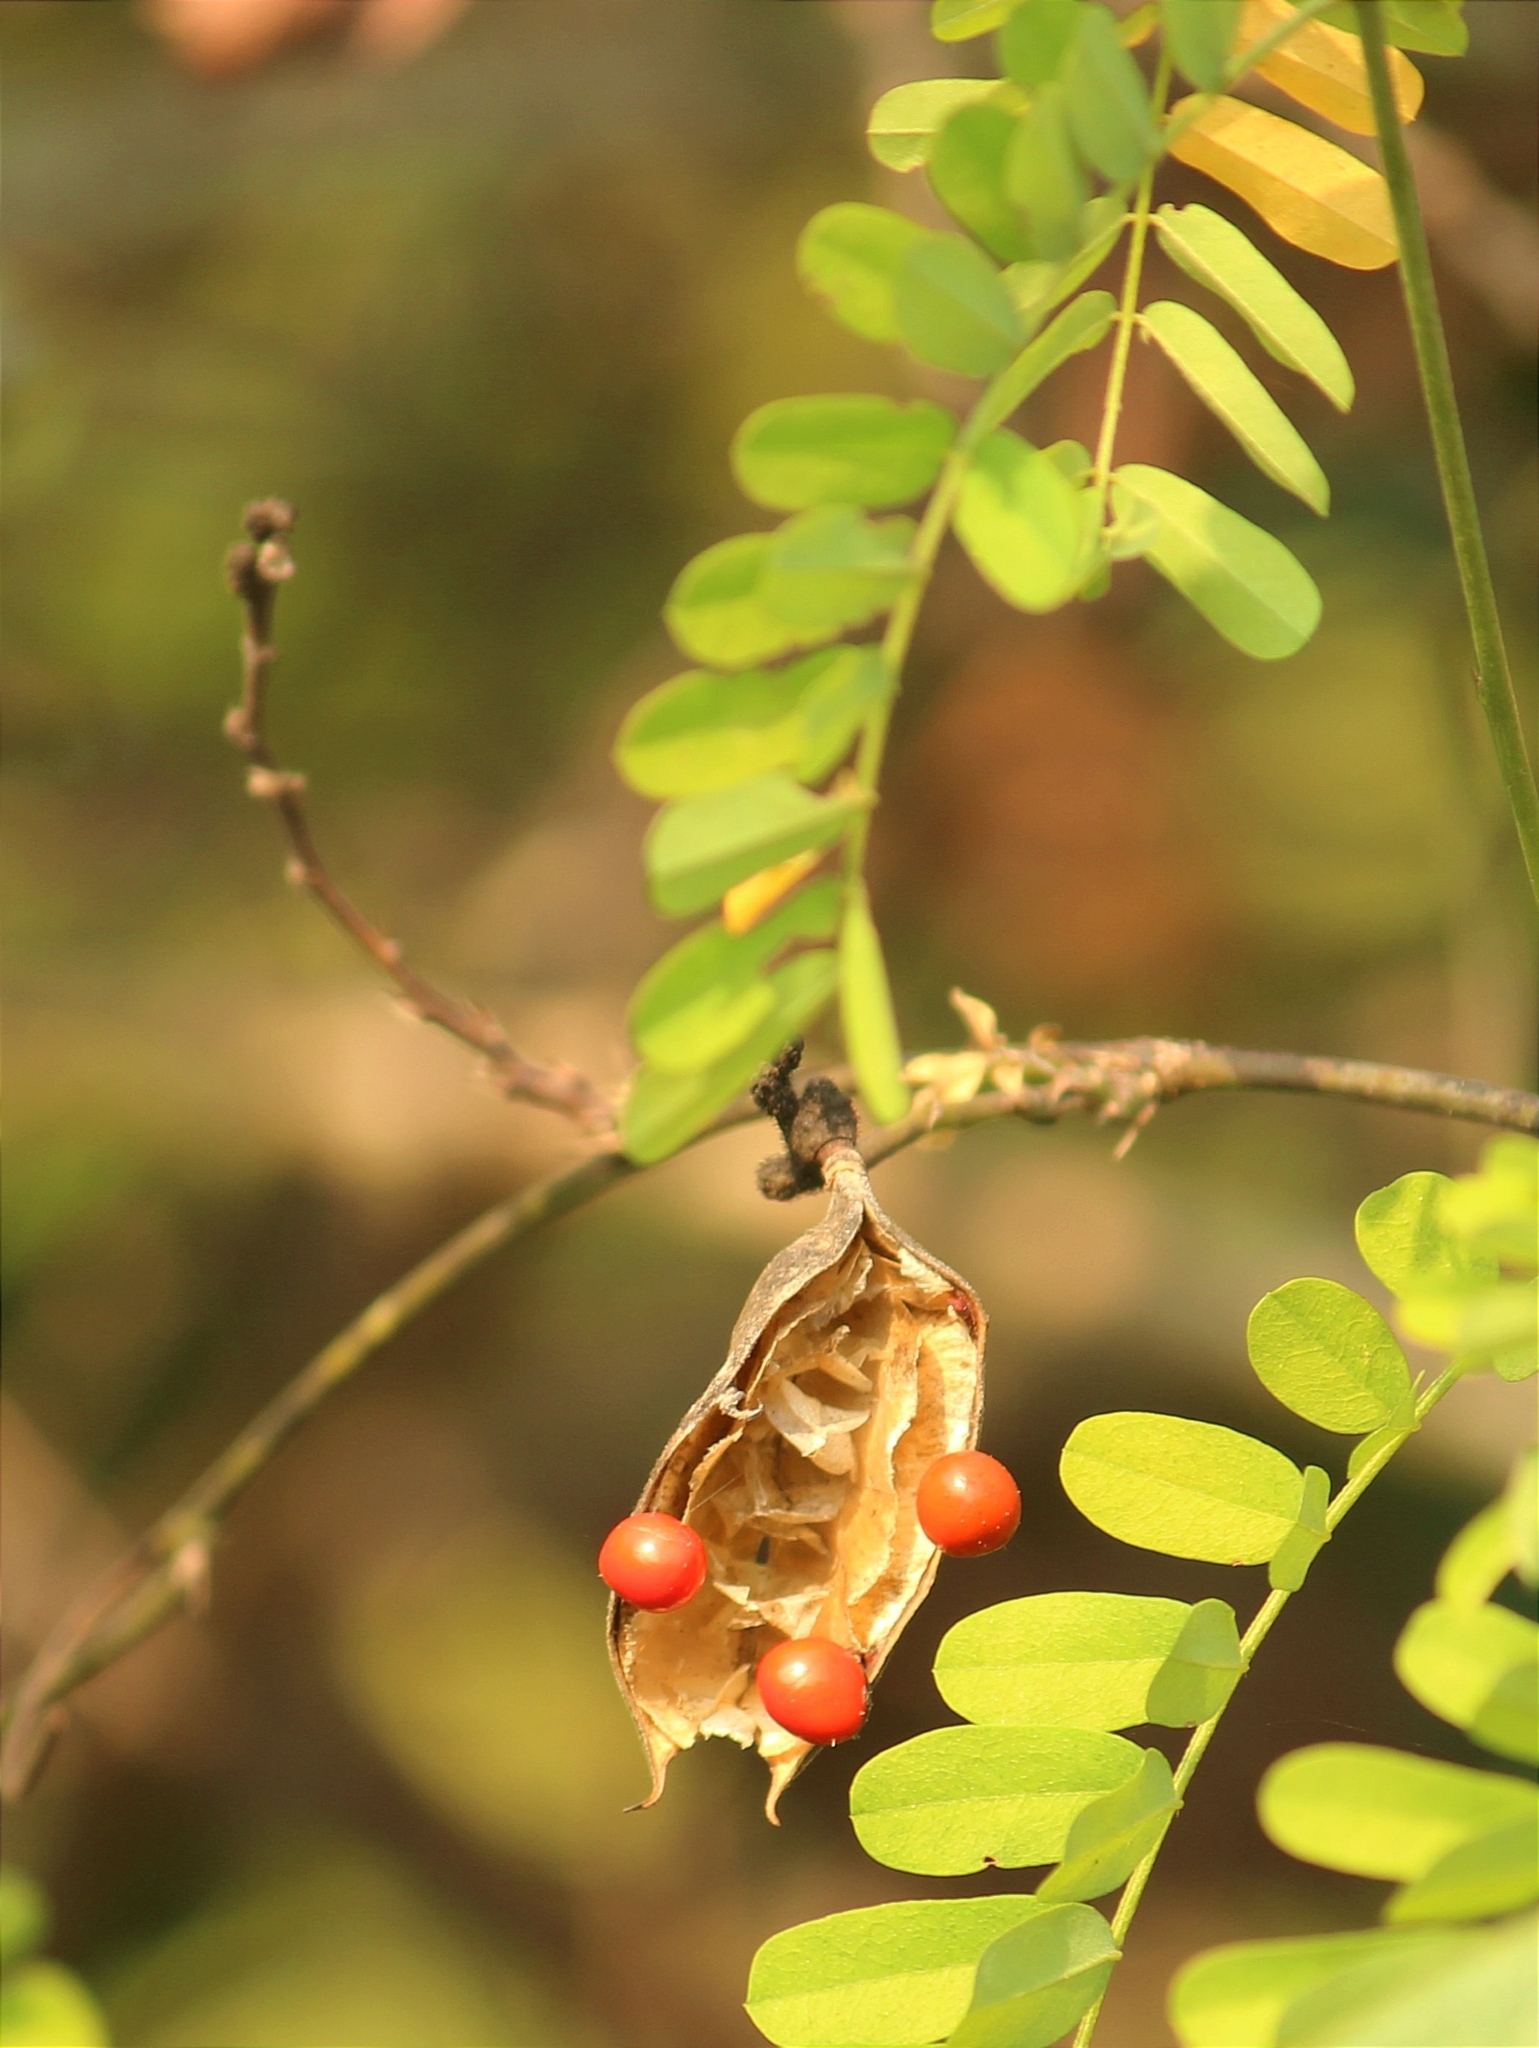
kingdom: Plantae
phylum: Tracheophyta
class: Magnoliopsida
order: Fabales
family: Fabaceae
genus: Abrus
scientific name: Abrus precatorius
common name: Rosarypea
